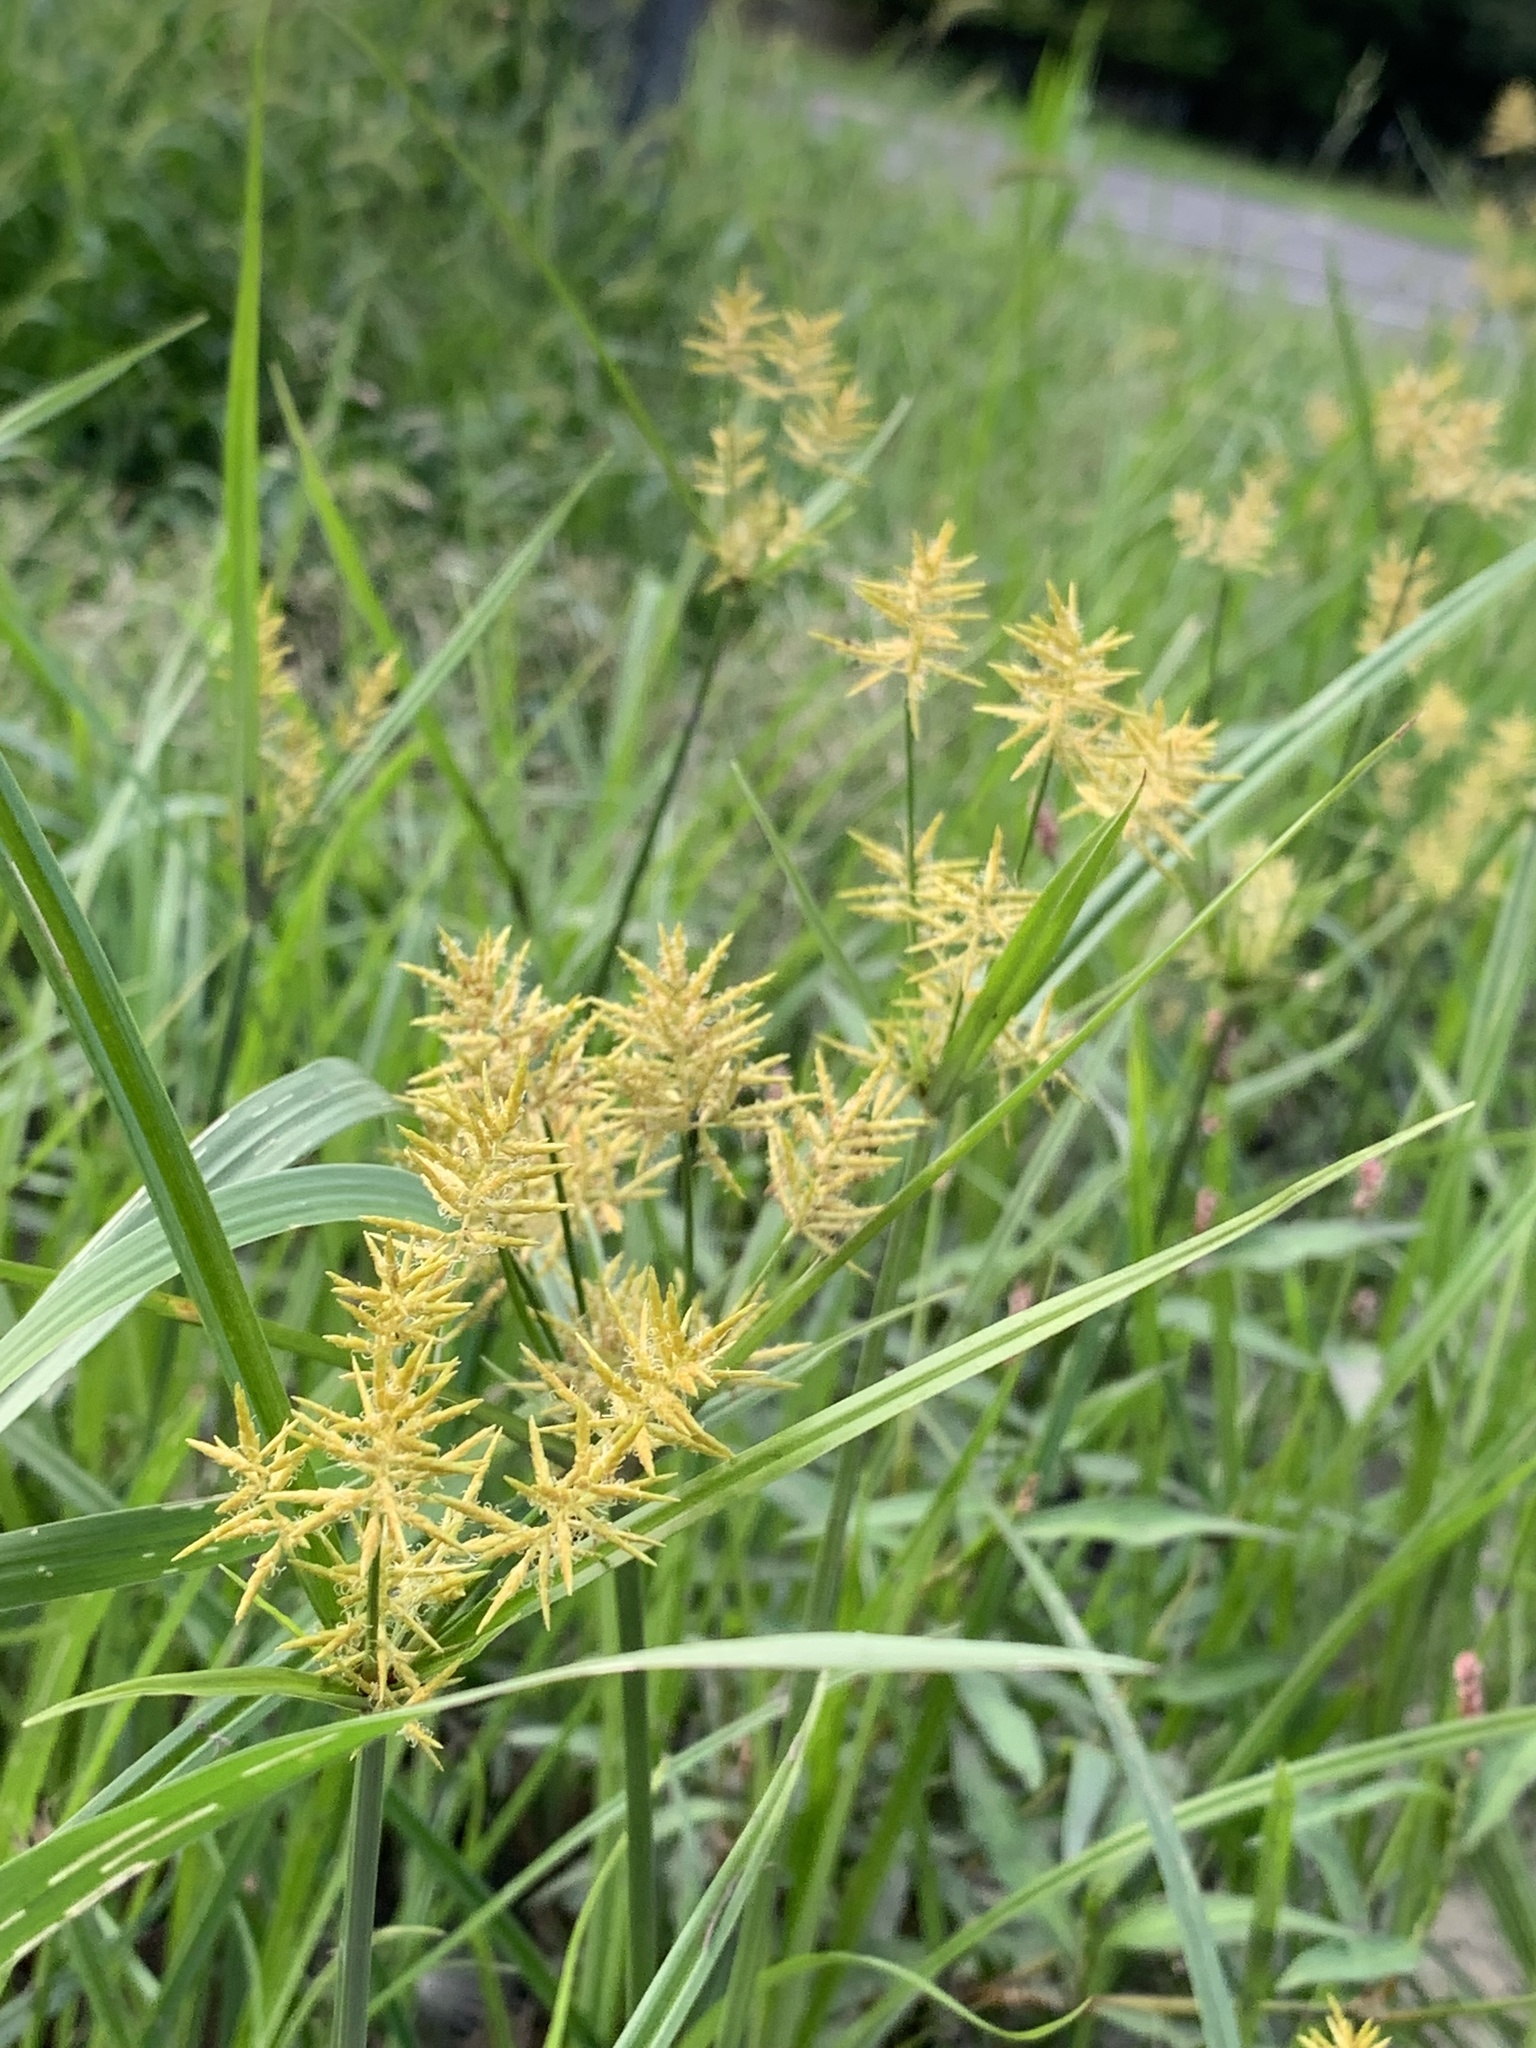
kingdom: Plantae
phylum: Tracheophyta
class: Liliopsida
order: Poales
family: Cyperaceae
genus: Cyperus
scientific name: Cyperus esculentus
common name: Yellow nutsedge
